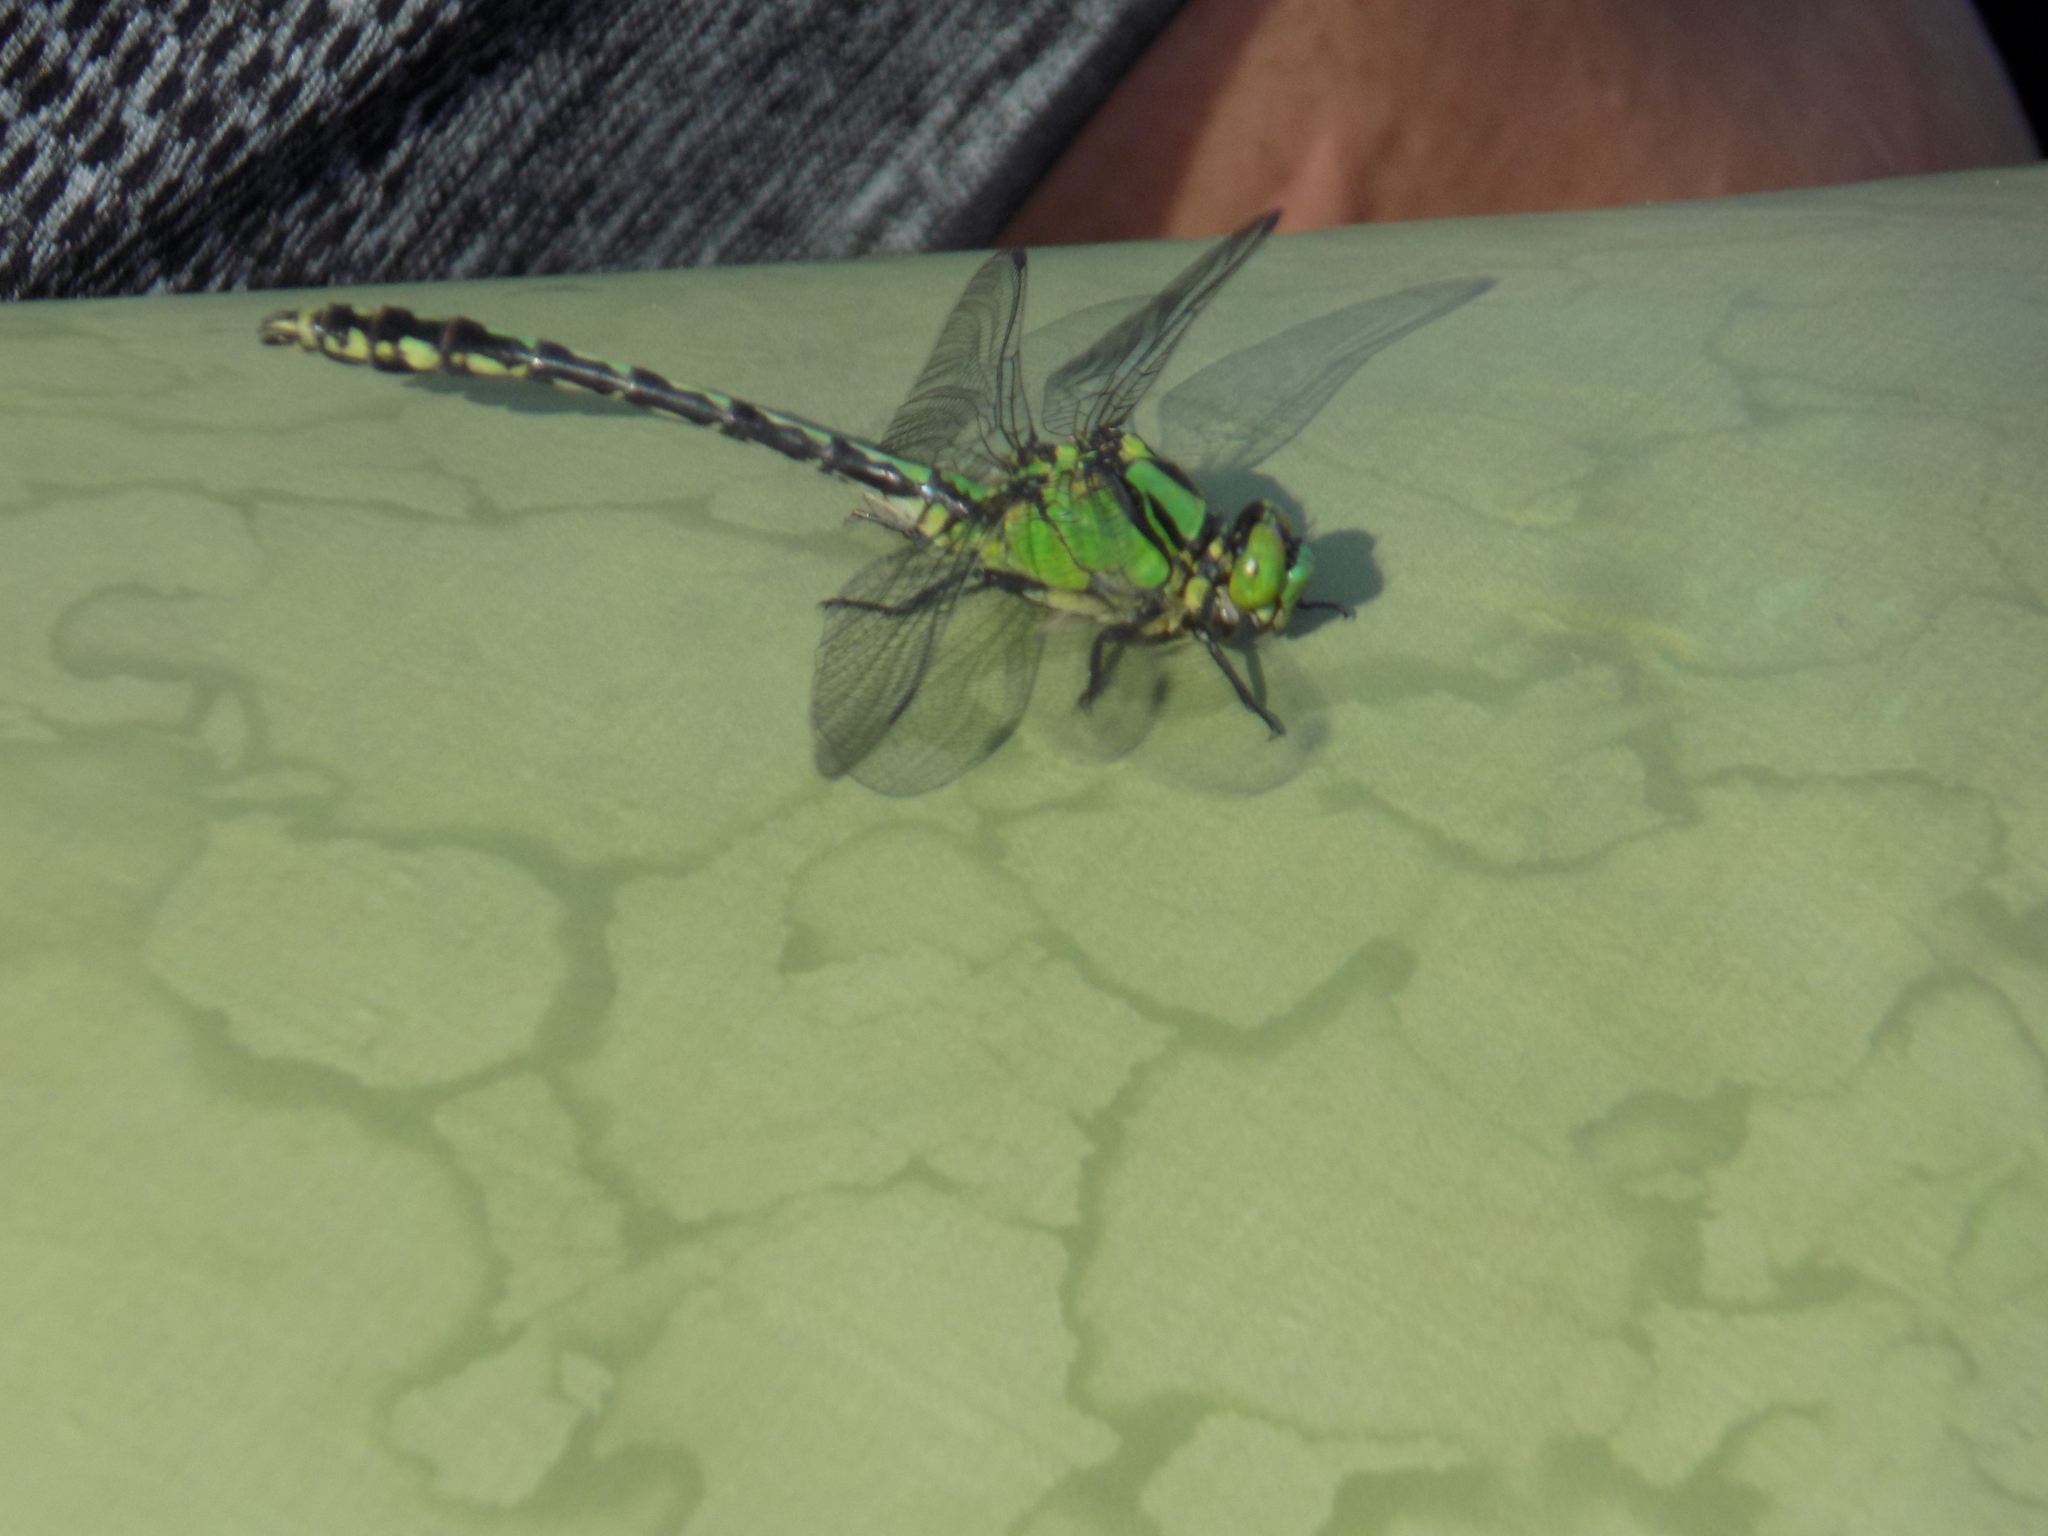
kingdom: Animalia
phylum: Arthropoda
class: Insecta
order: Odonata
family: Gomphidae
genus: Ophiogomphus
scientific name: Ophiogomphus obscurus
